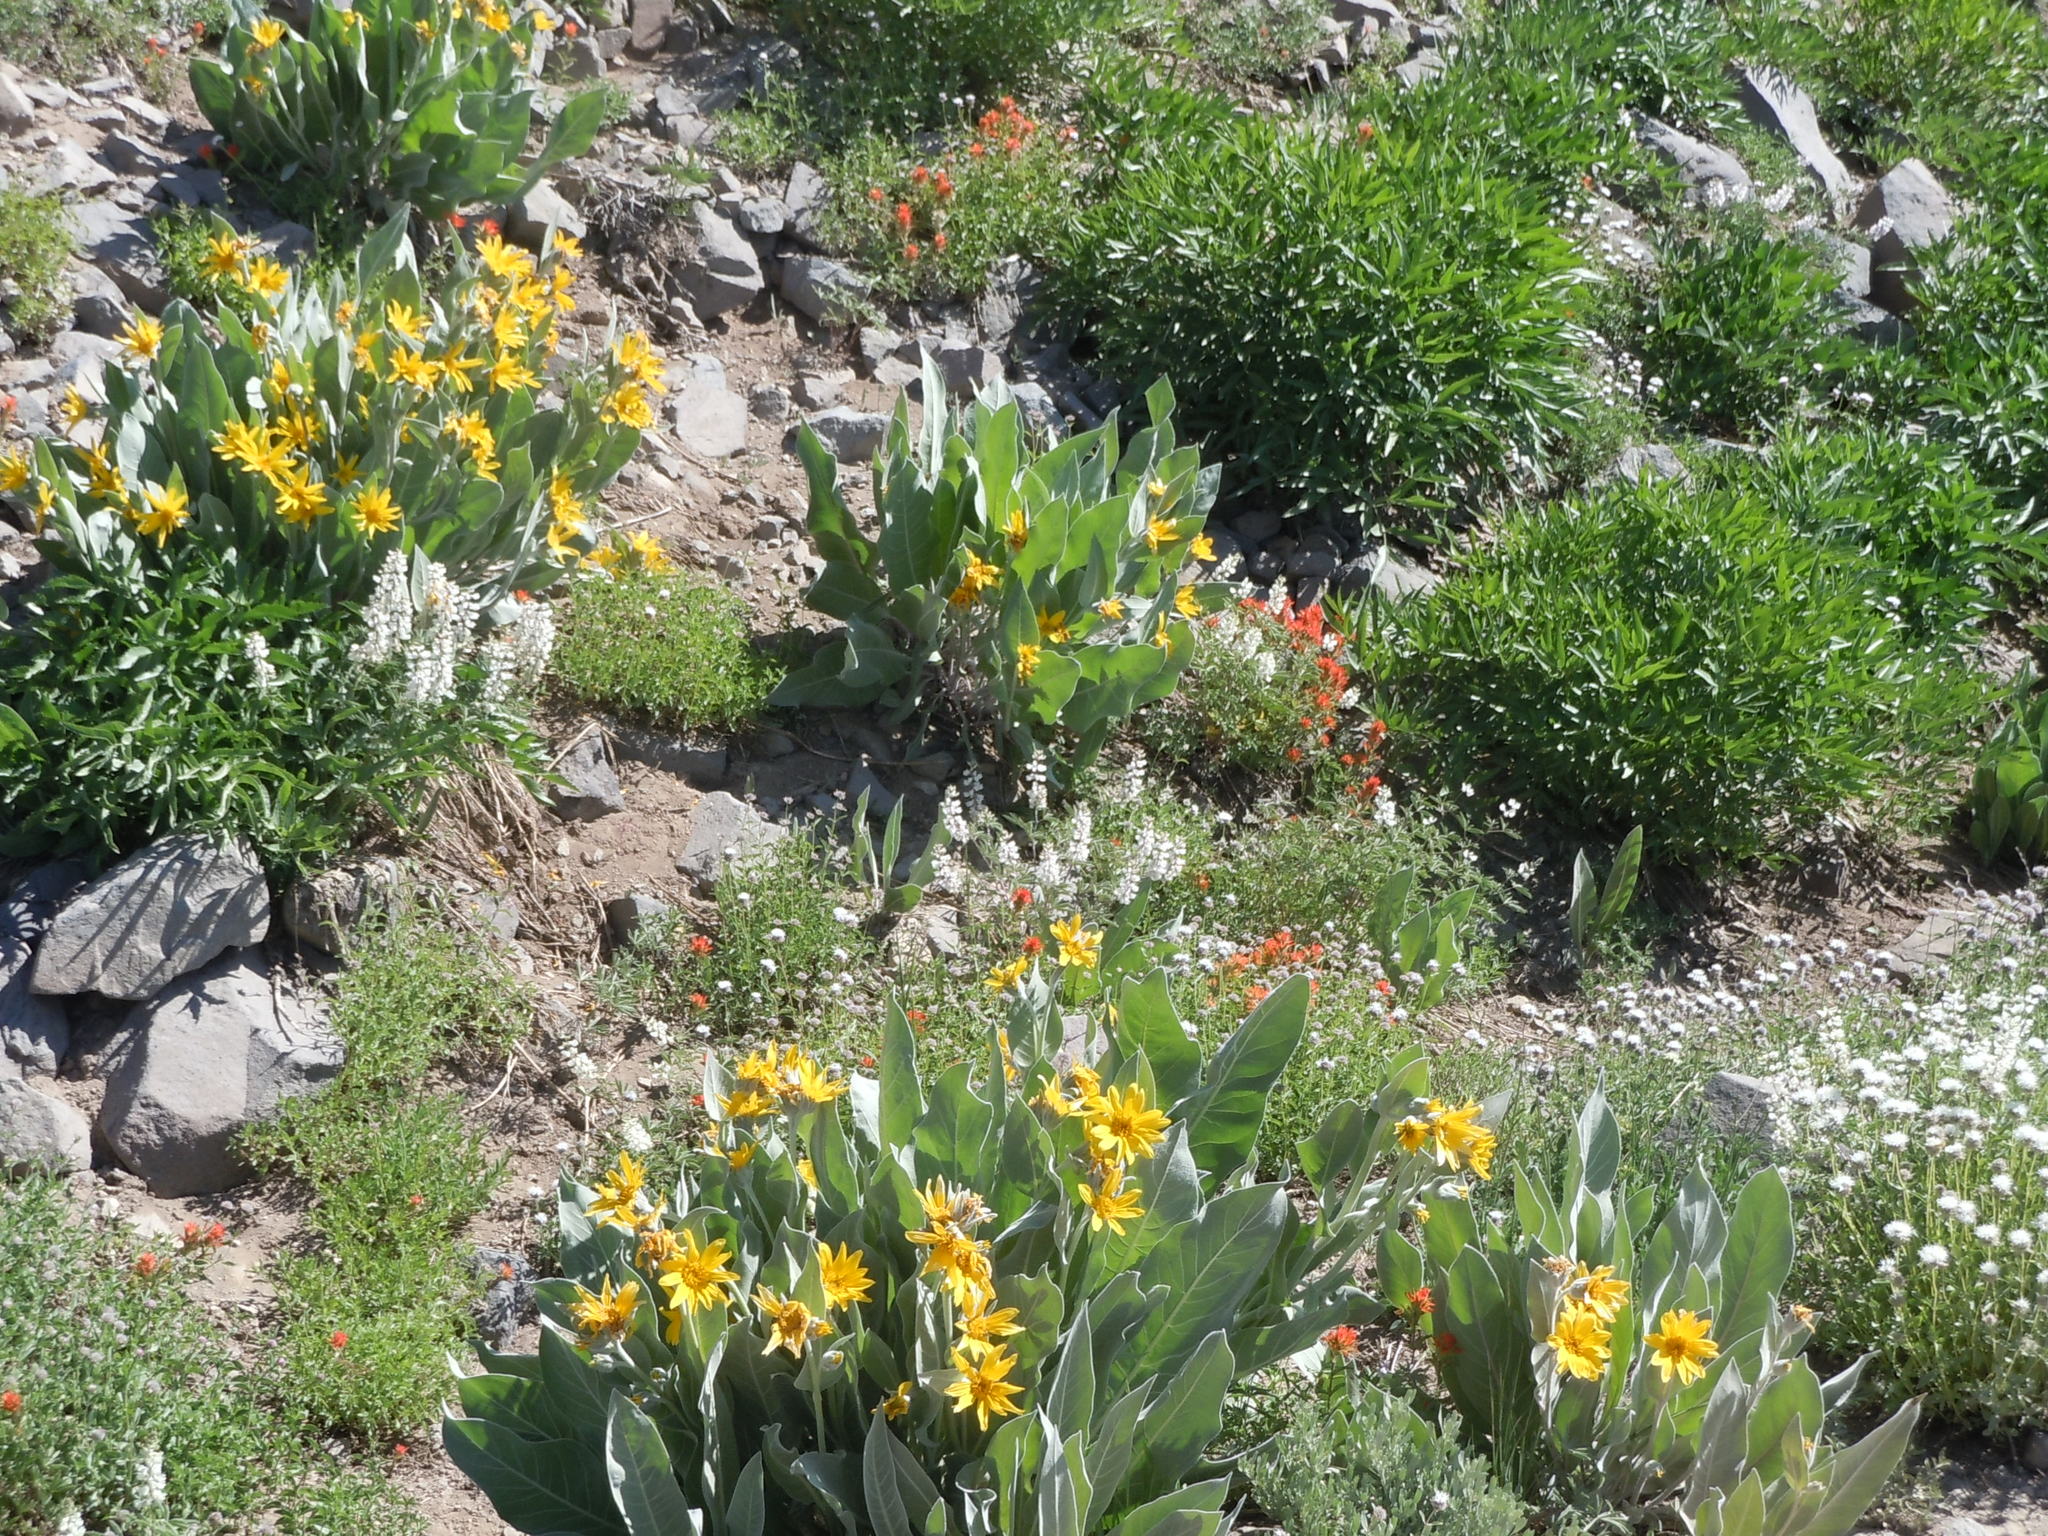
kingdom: Plantae
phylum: Tracheophyta
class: Magnoliopsida
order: Asterales
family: Asteraceae
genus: Wyethia
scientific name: Wyethia mollis
